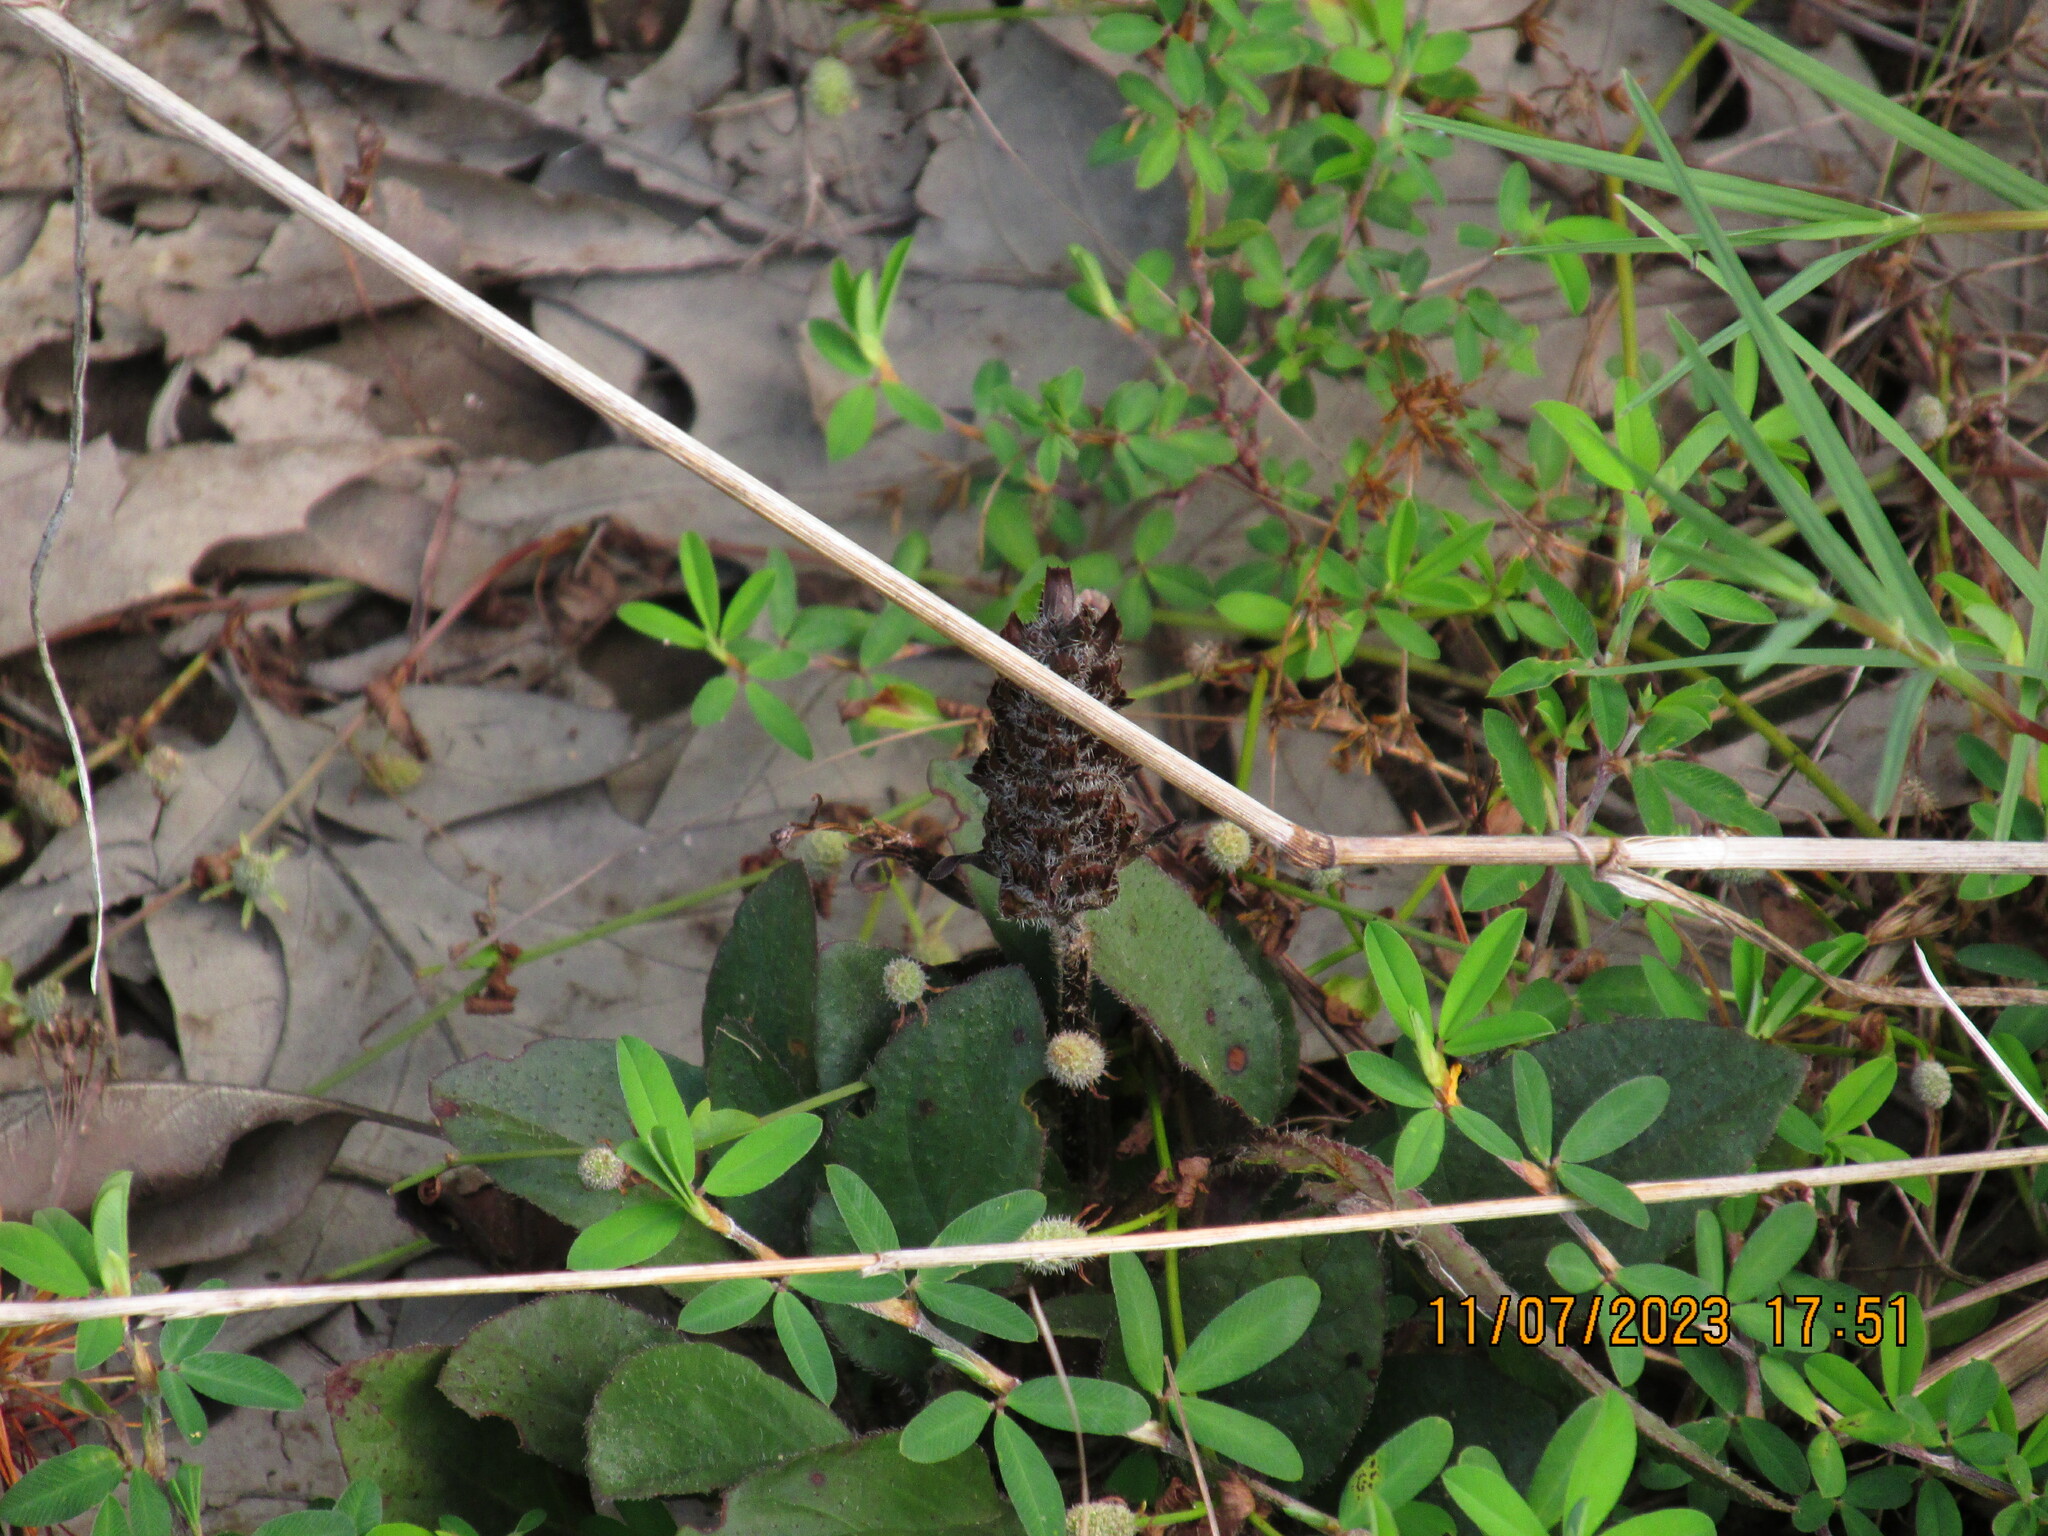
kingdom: Plantae
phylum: Tracheophyta
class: Magnoliopsida
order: Lamiales
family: Lamiaceae
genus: Prunella
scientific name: Prunella vulgaris
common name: Heal-all
